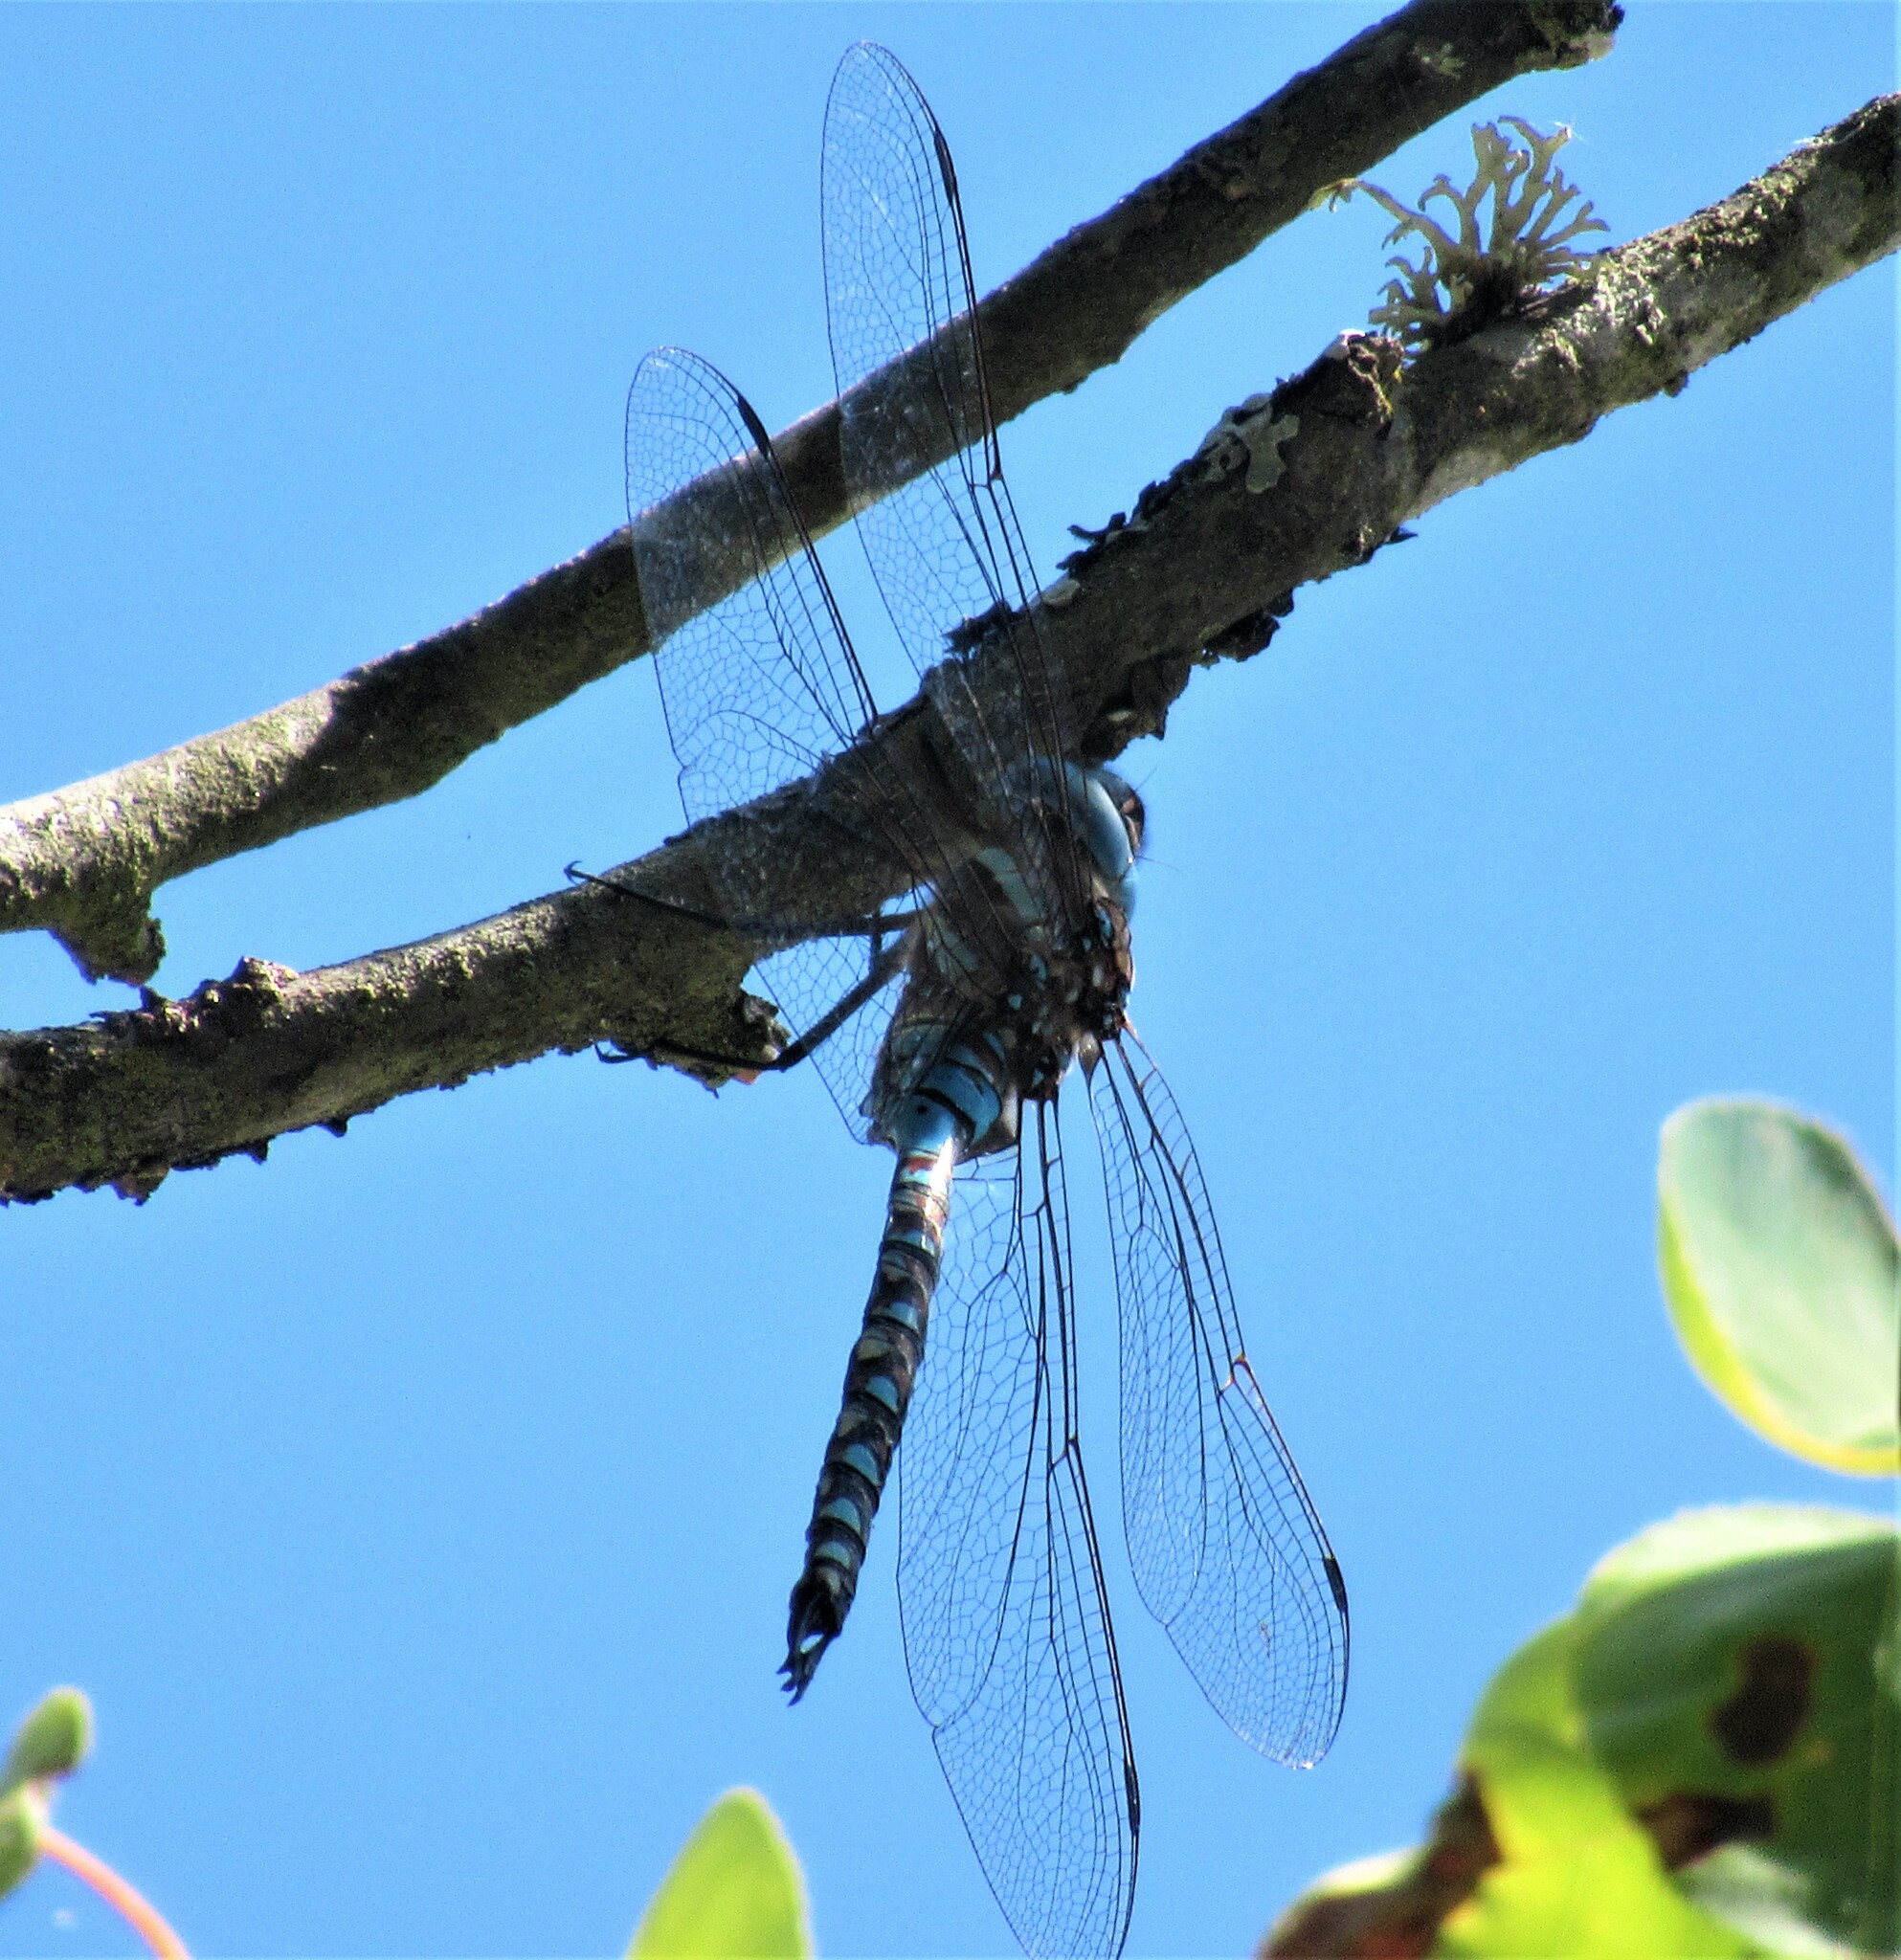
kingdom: Animalia
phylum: Arthropoda
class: Insecta
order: Odonata
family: Aeshnidae
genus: Rhionaeschna
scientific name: Rhionaeschna multicolor
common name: Blue-eyed darner
